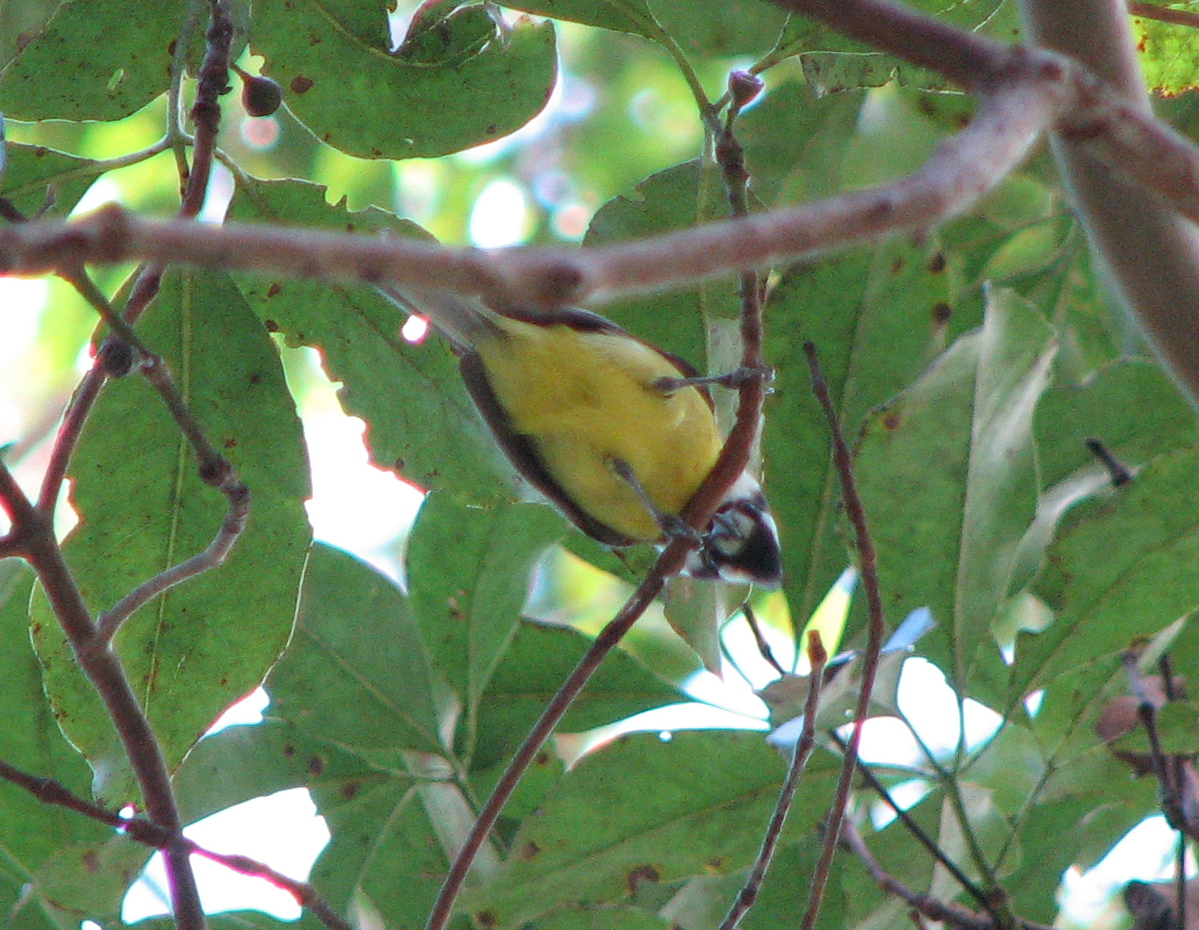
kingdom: Animalia
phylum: Chordata
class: Aves
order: Passeriformes
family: Pachycephalidae
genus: Falcunculus
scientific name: Falcunculus frontatus
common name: Crested shriketit
